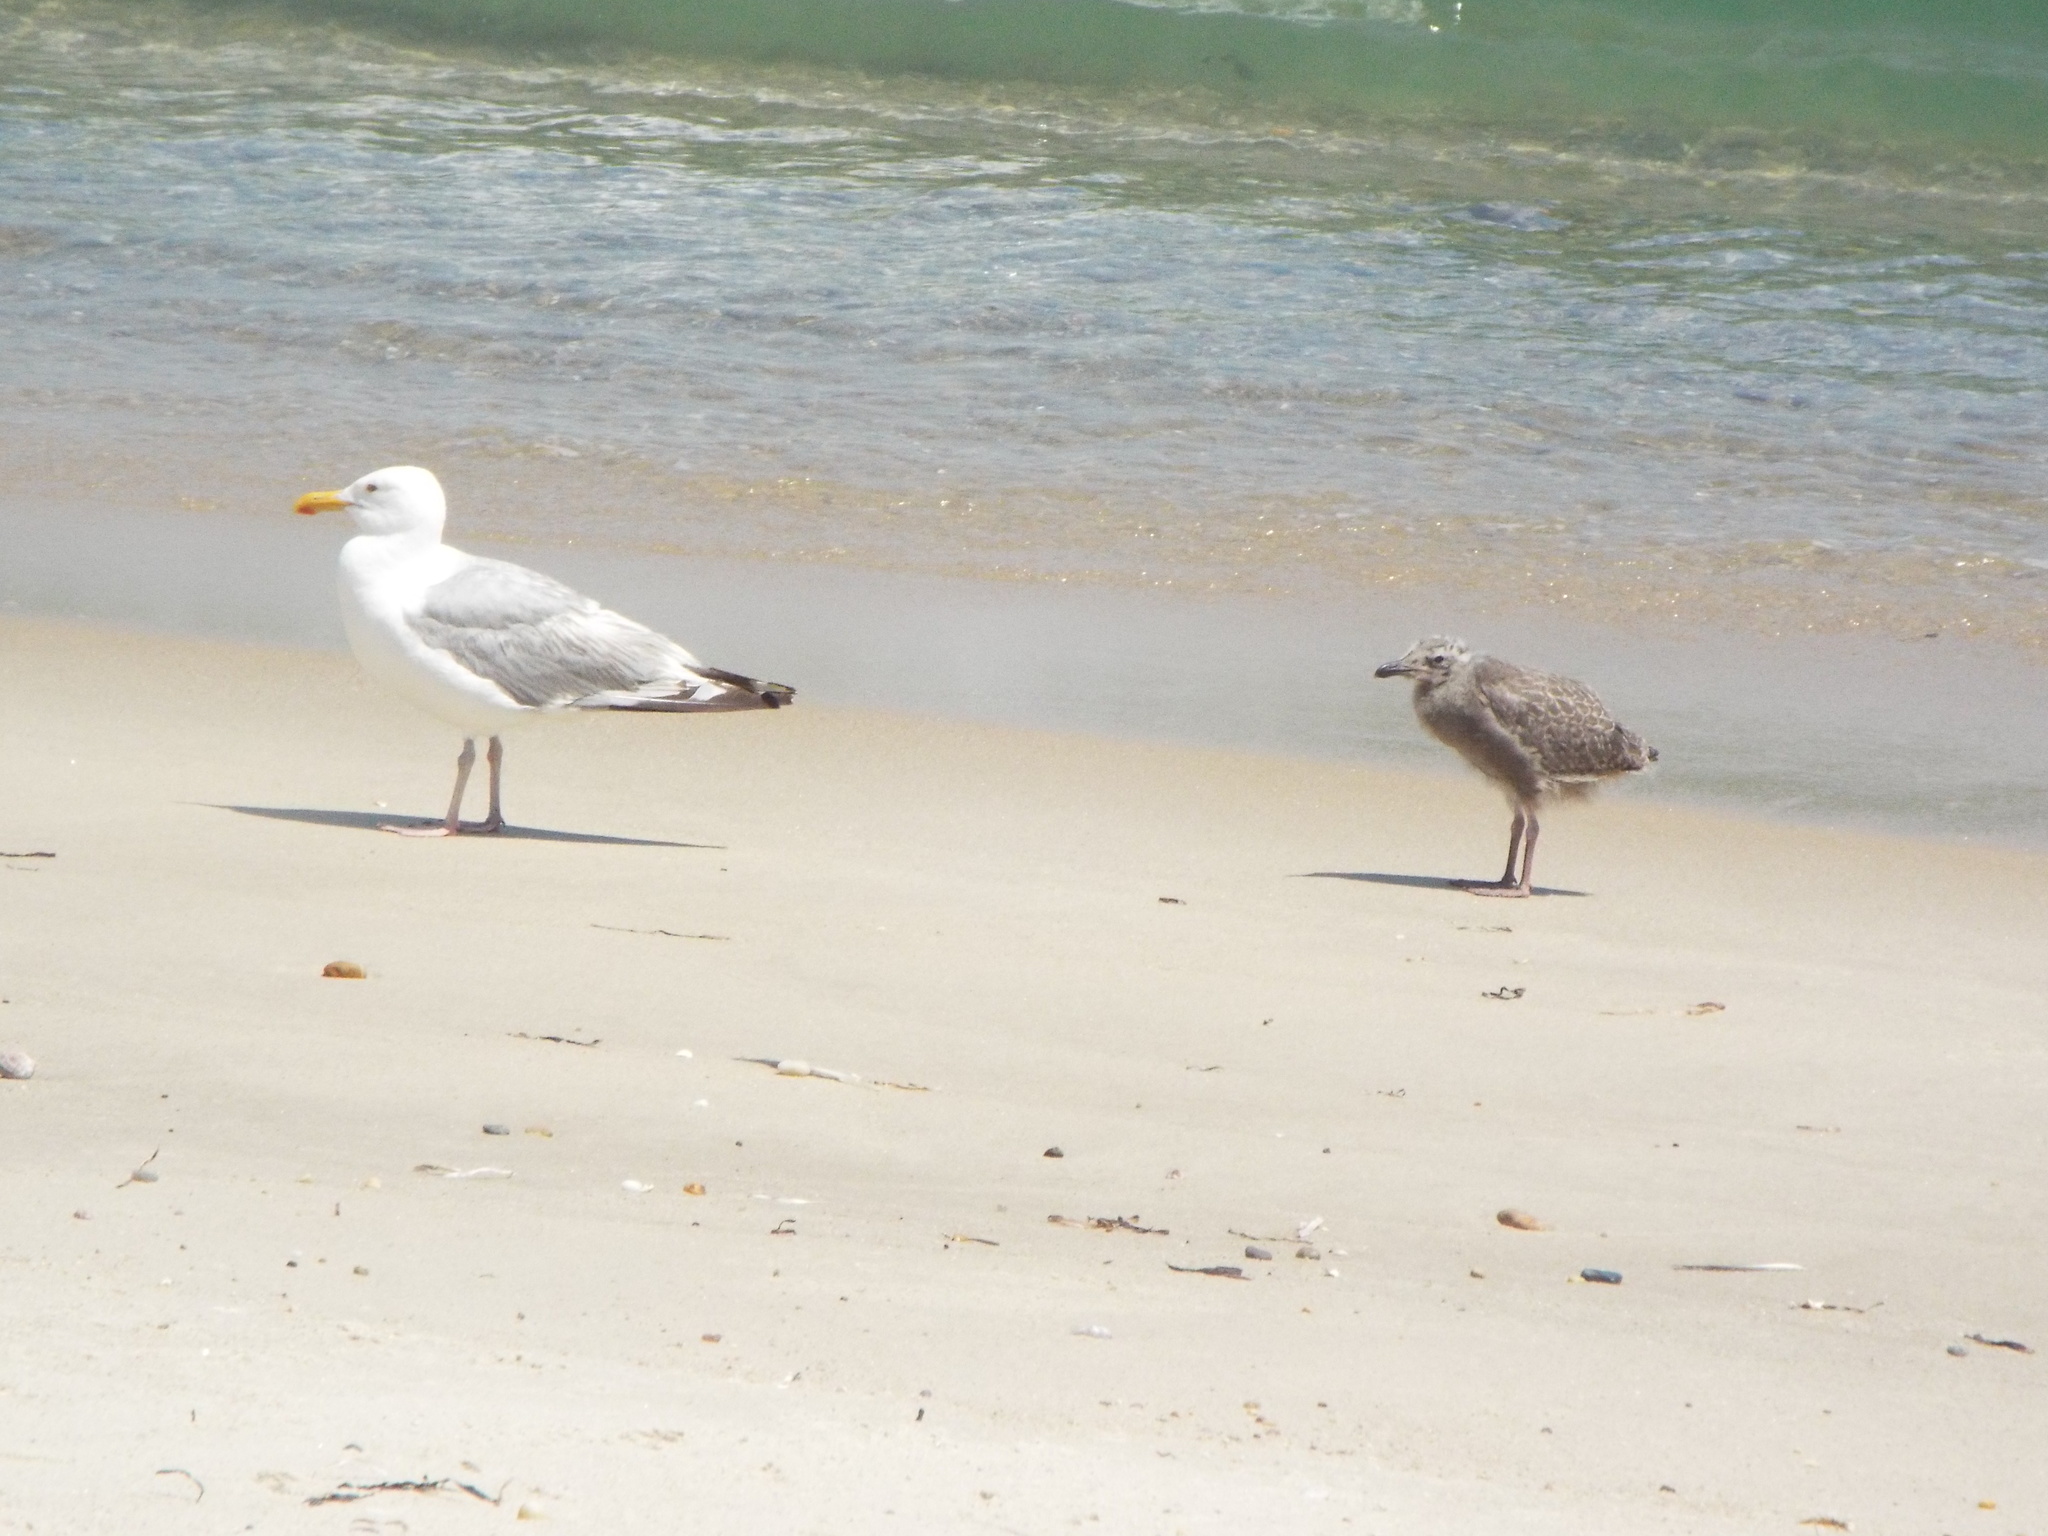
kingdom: Animalia
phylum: Chordata
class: Aves
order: Charadriiformes
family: Laridae
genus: Larus
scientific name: Larus argentatus
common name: Herring gull
